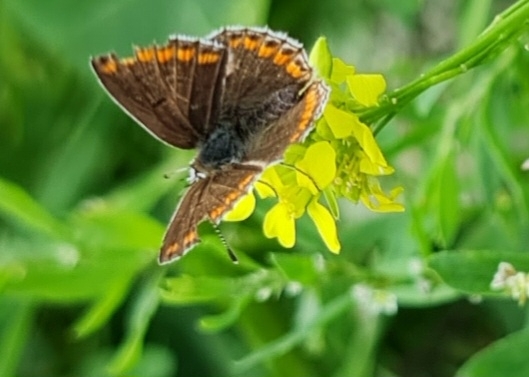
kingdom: Animalia
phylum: Arthropoda
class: Insecta
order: Lepidoptera
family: Lycaenidae
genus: Aricia
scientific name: Aricia agestis
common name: Brown argus
